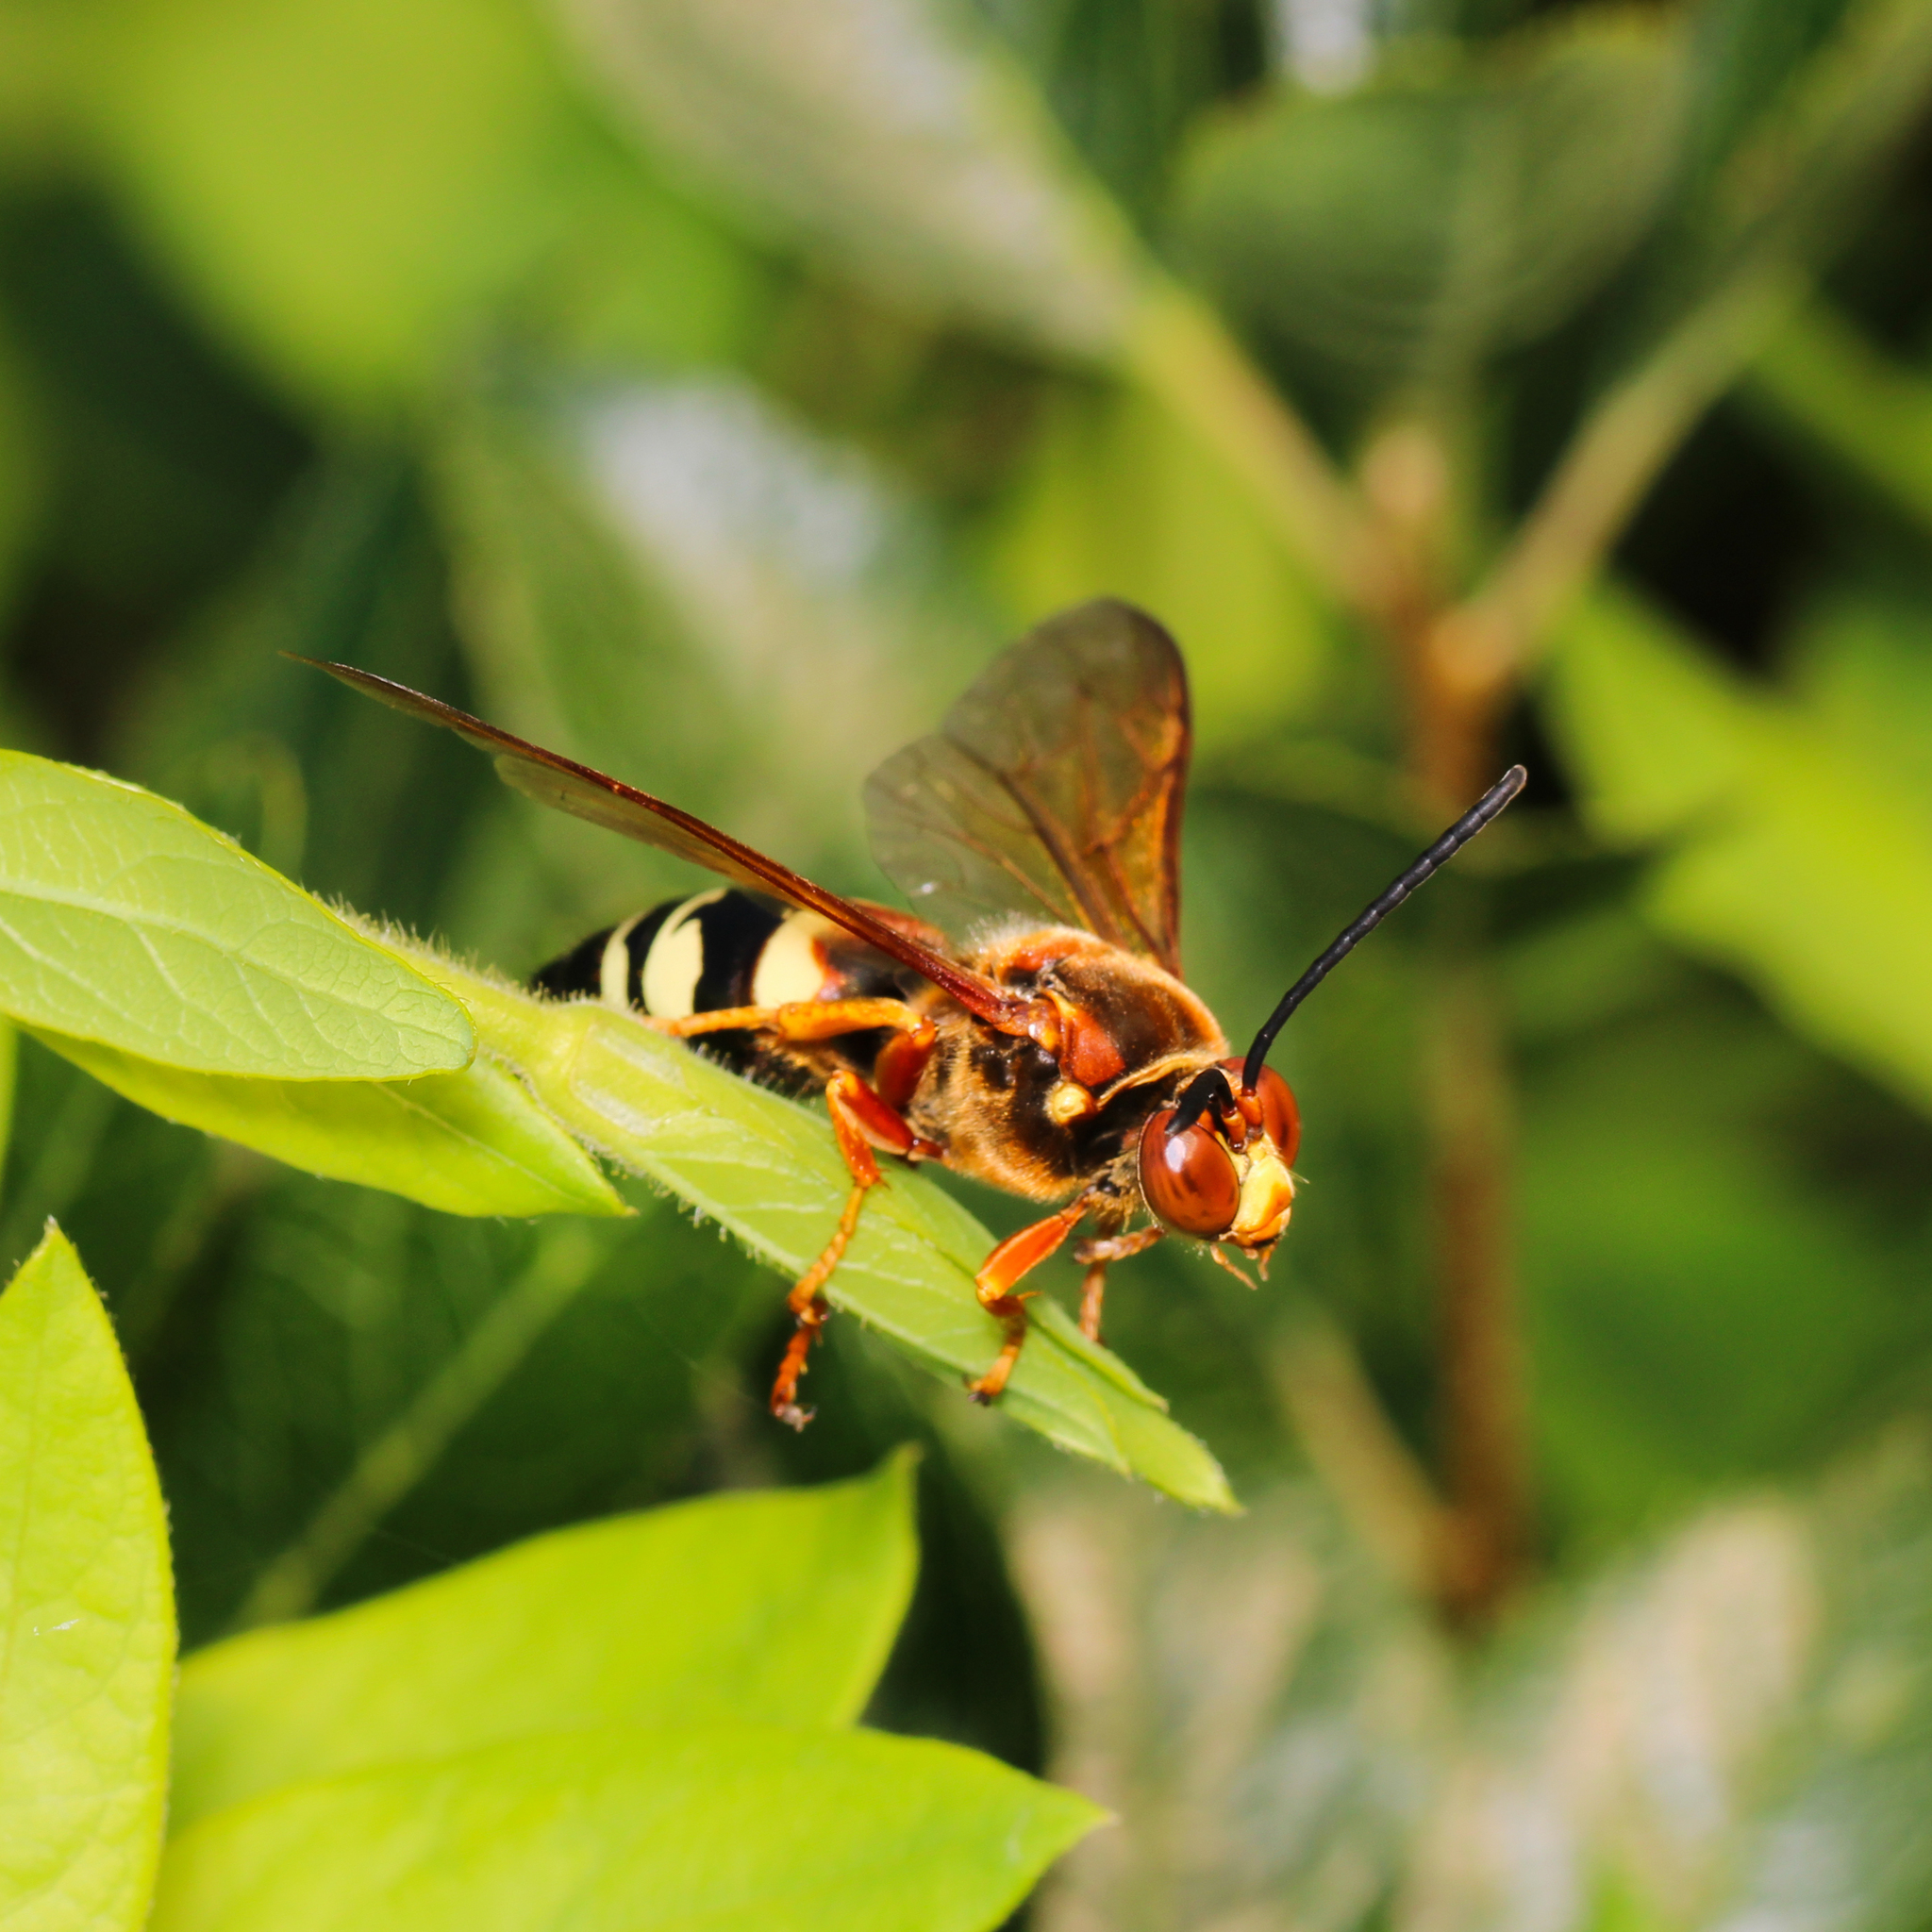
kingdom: Animalia
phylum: Arthropoda
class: Insecta
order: Hymenoptera
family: Crabronidae
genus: Sphecius
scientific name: Sphecius speciosus
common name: Cicada killer
